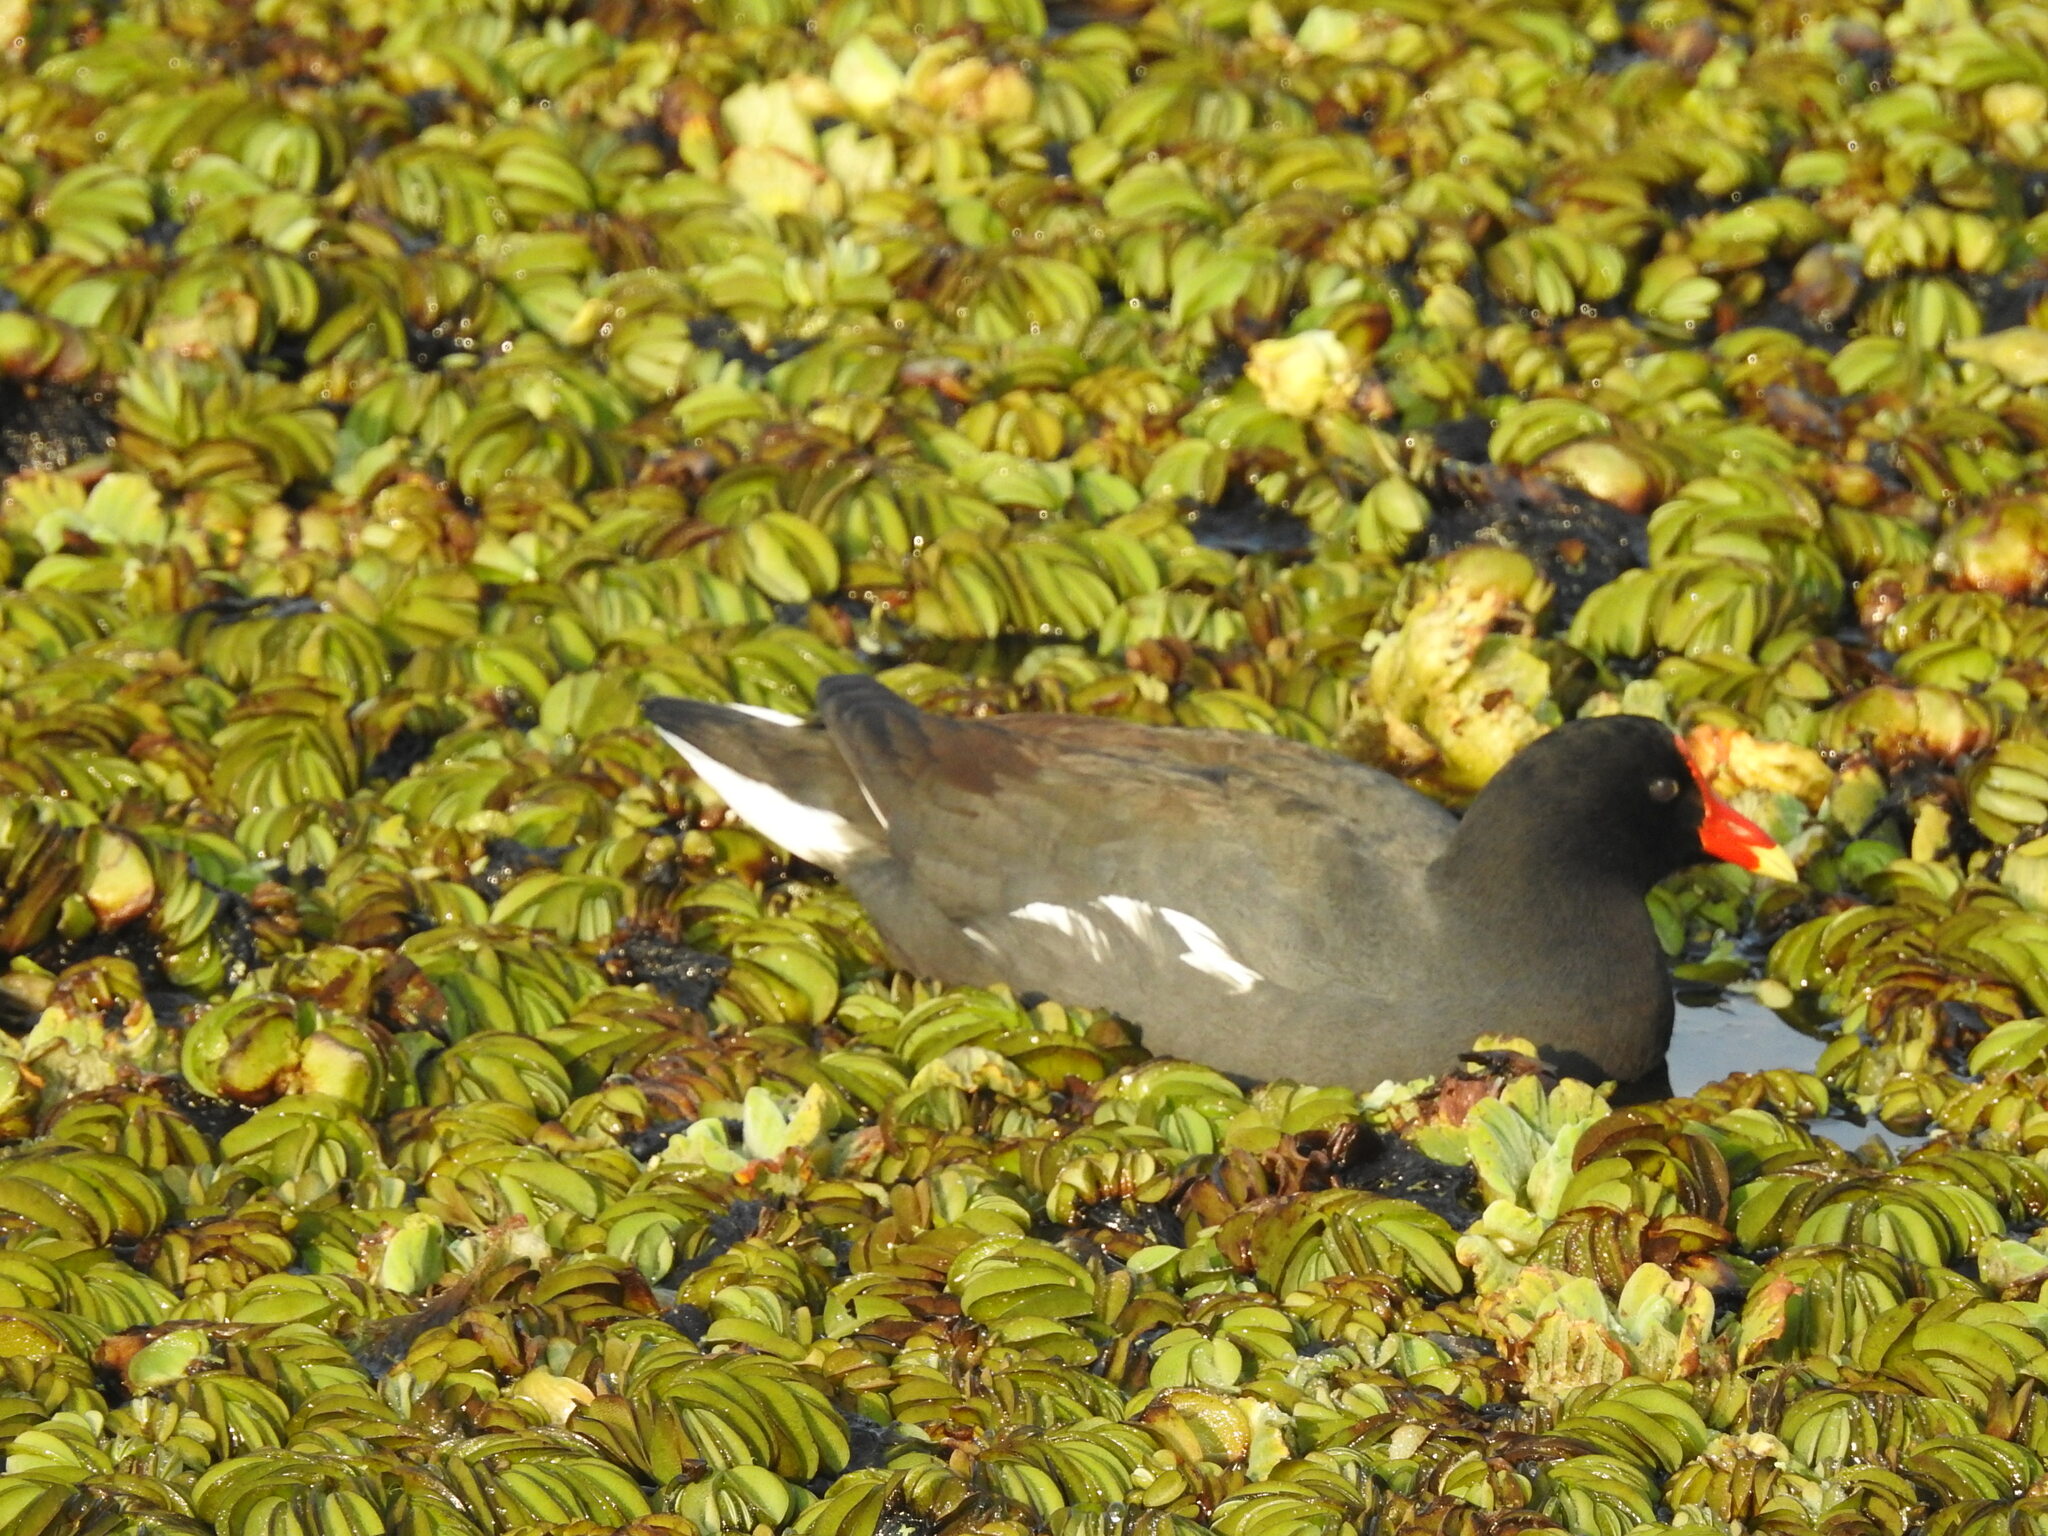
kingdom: Animalia
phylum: Chordata
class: Aves
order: Gruiformes
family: Rallidae
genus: Gallinula
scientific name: Gallinula chloropus
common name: Common moorhen
